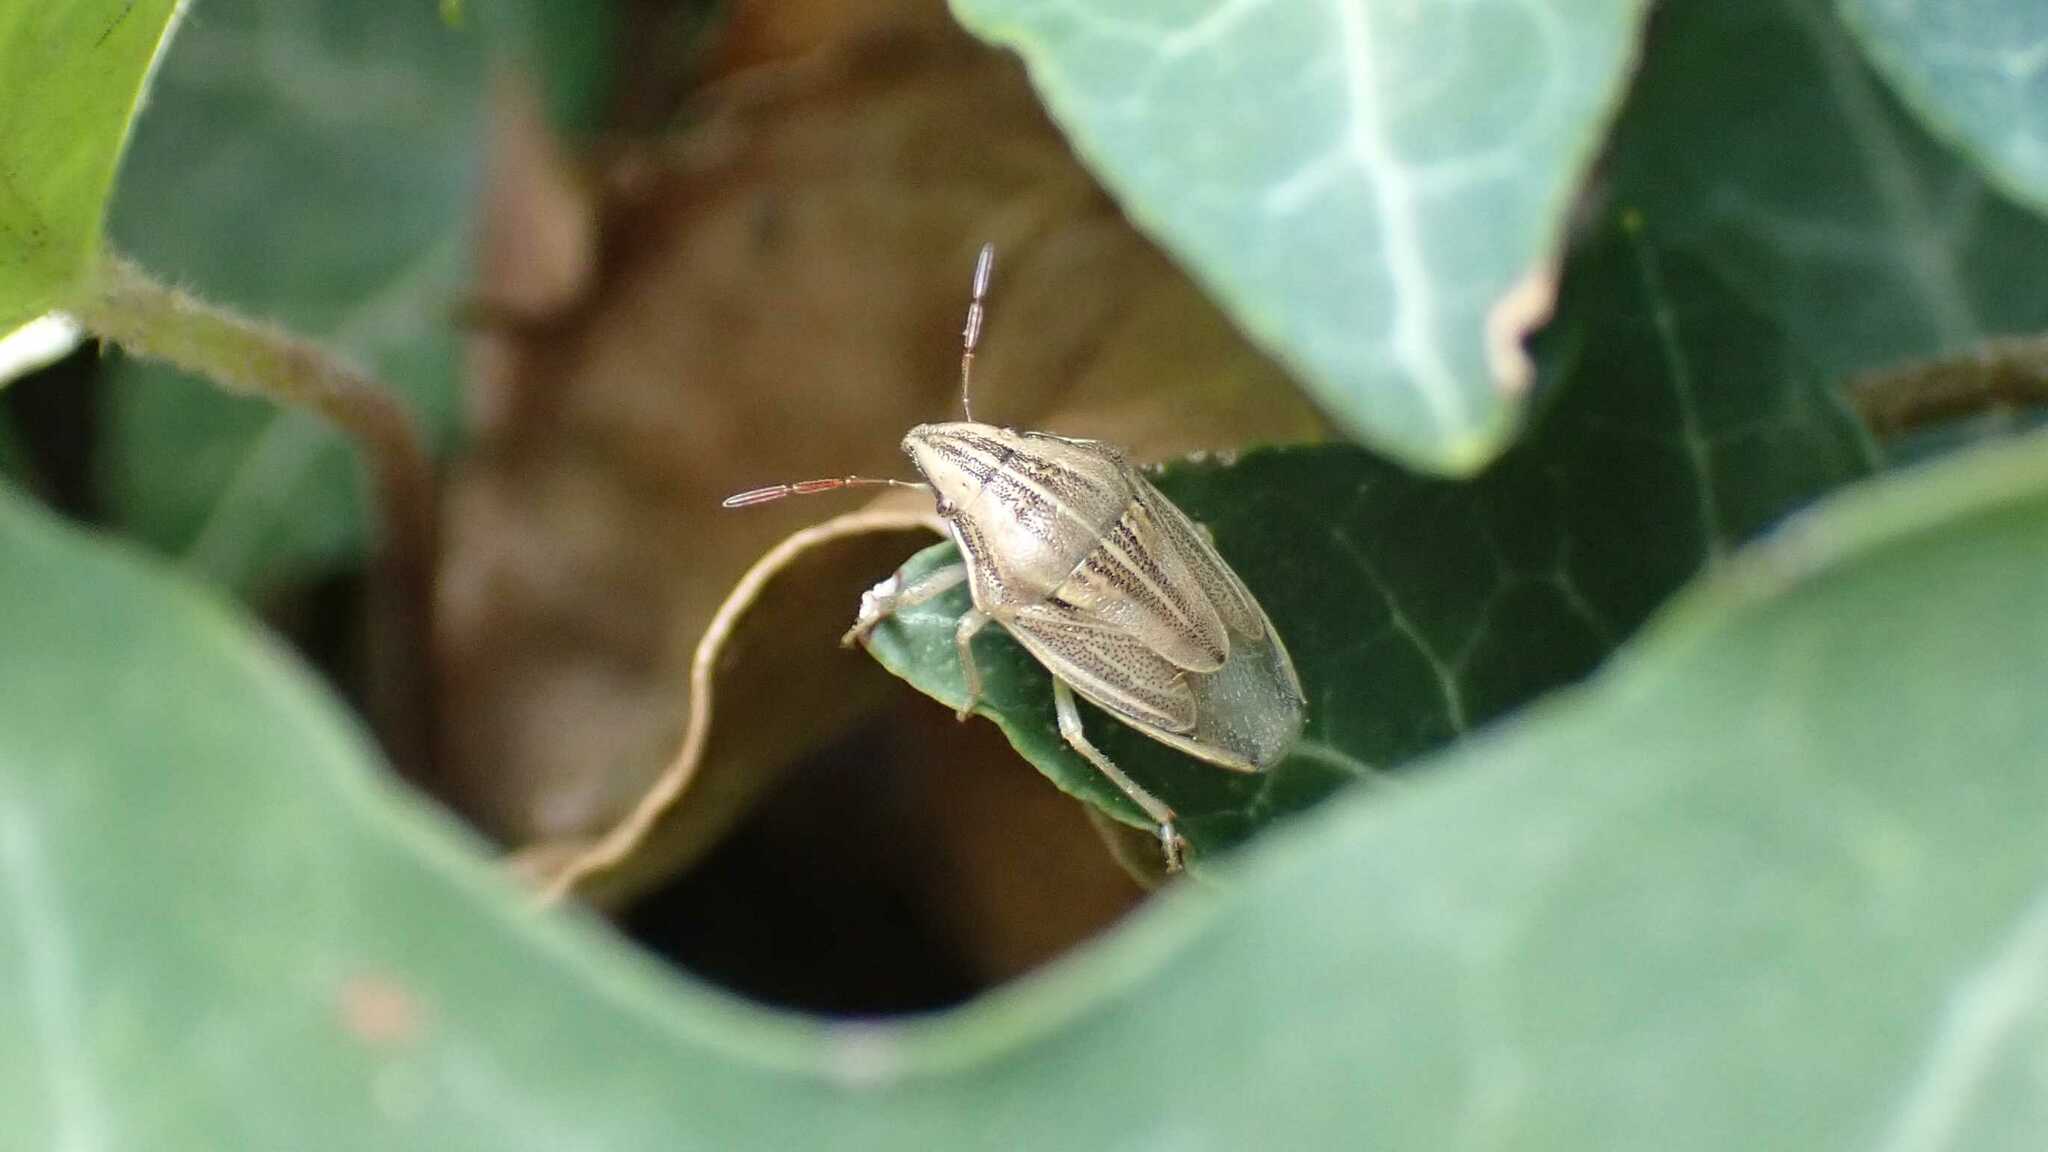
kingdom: Animalia
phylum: Arthropoda
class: Insecta
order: Hemiptera
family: Pentatomidae
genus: Aelia
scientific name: Aelia acuminata
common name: Bishop's mitre
